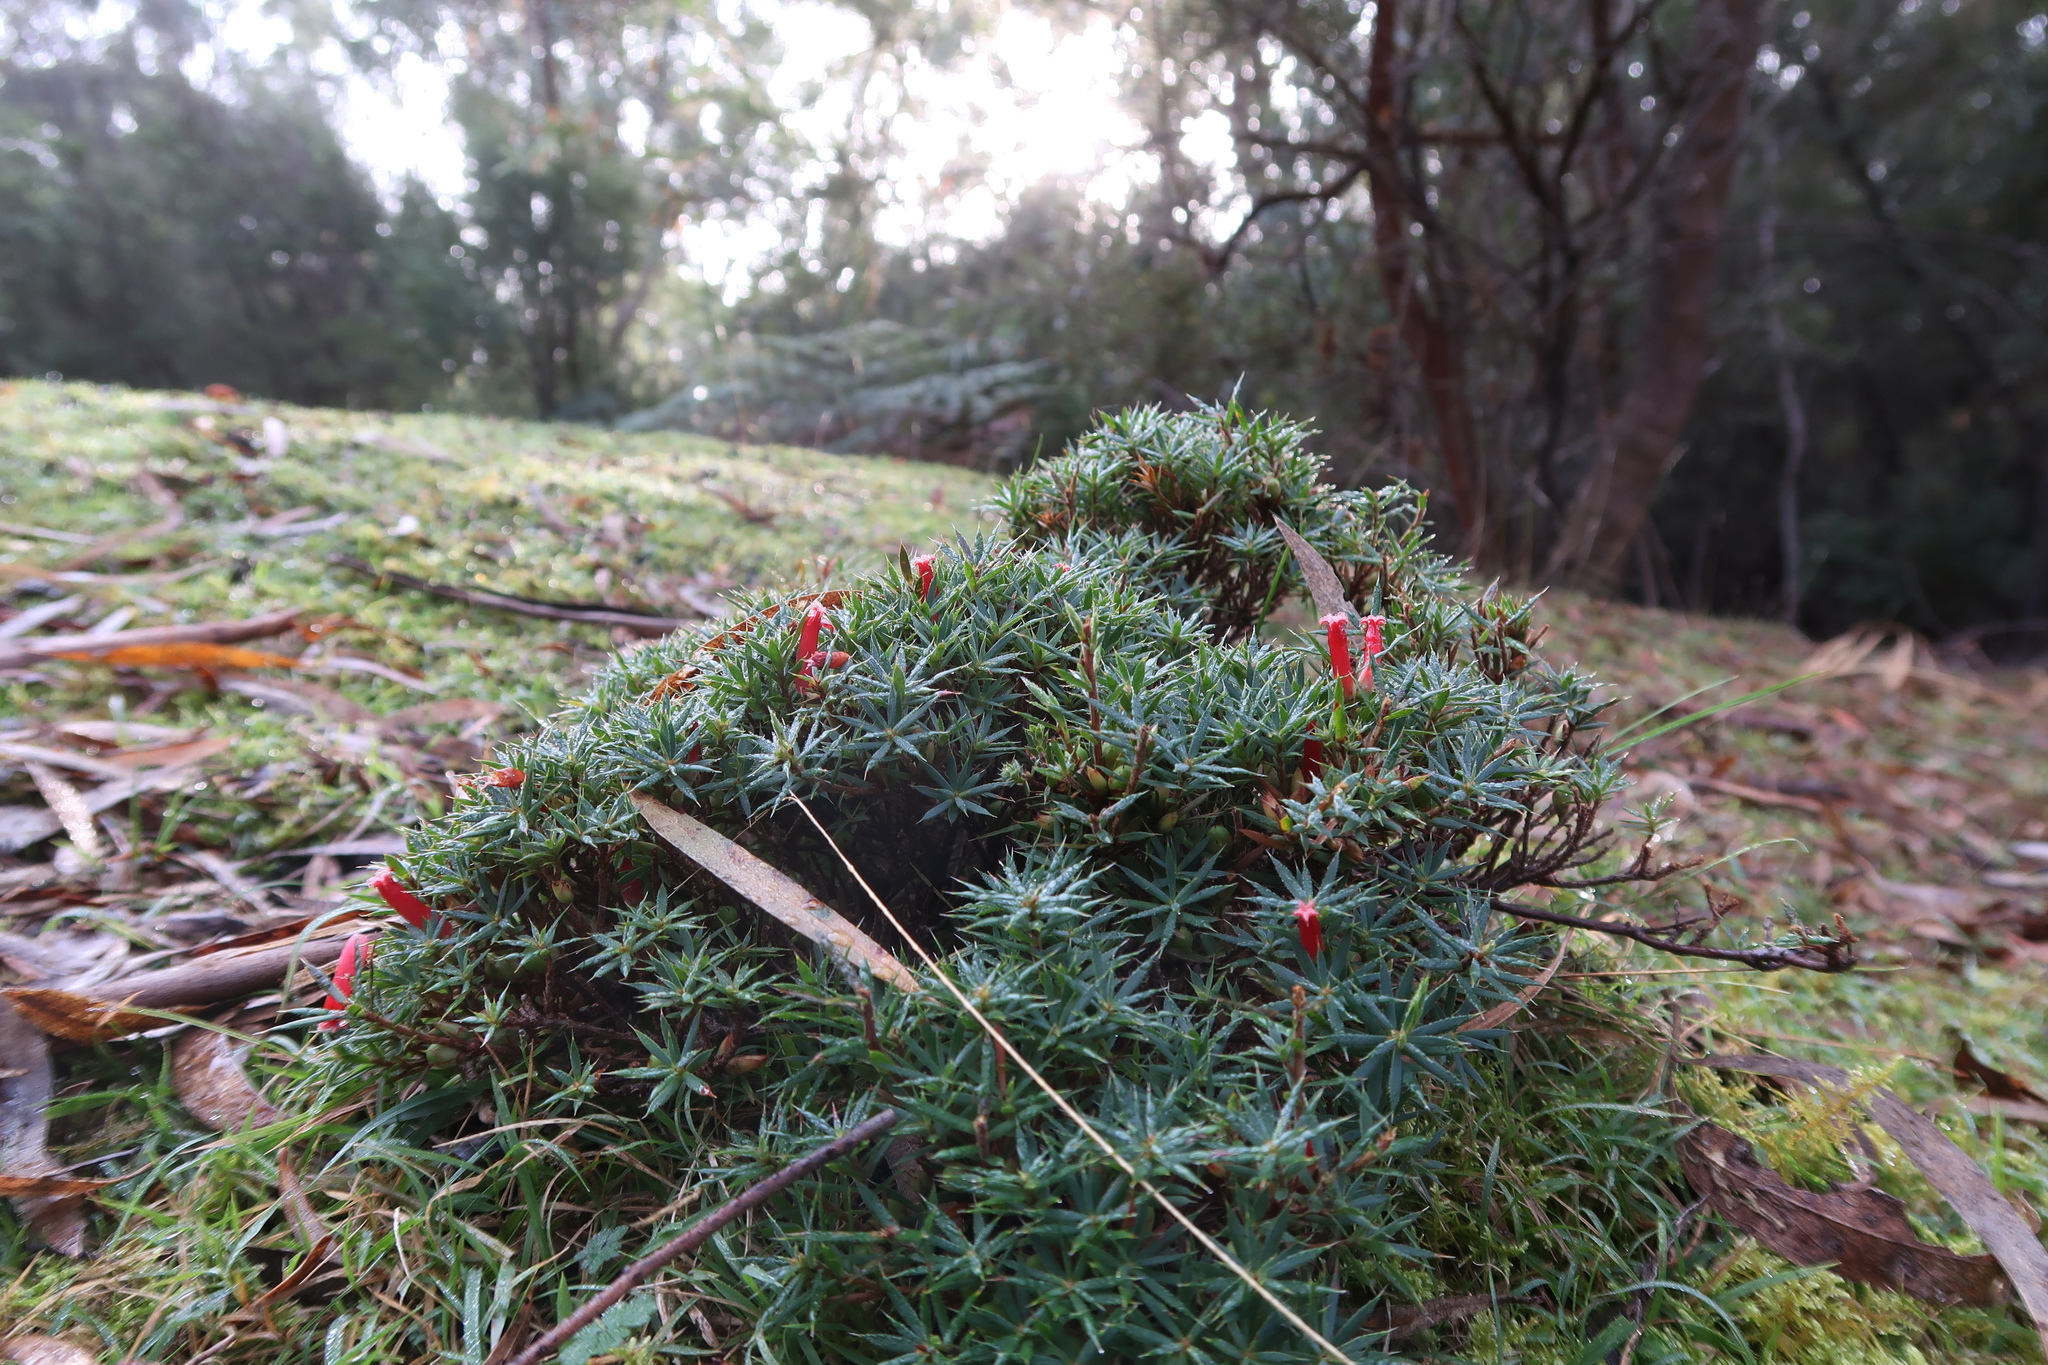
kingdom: Plantae
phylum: Tracheophyta
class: Magnoliopsida
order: Ericales
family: Ericaceae
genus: Styphelia
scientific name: Styphelia humifusa
